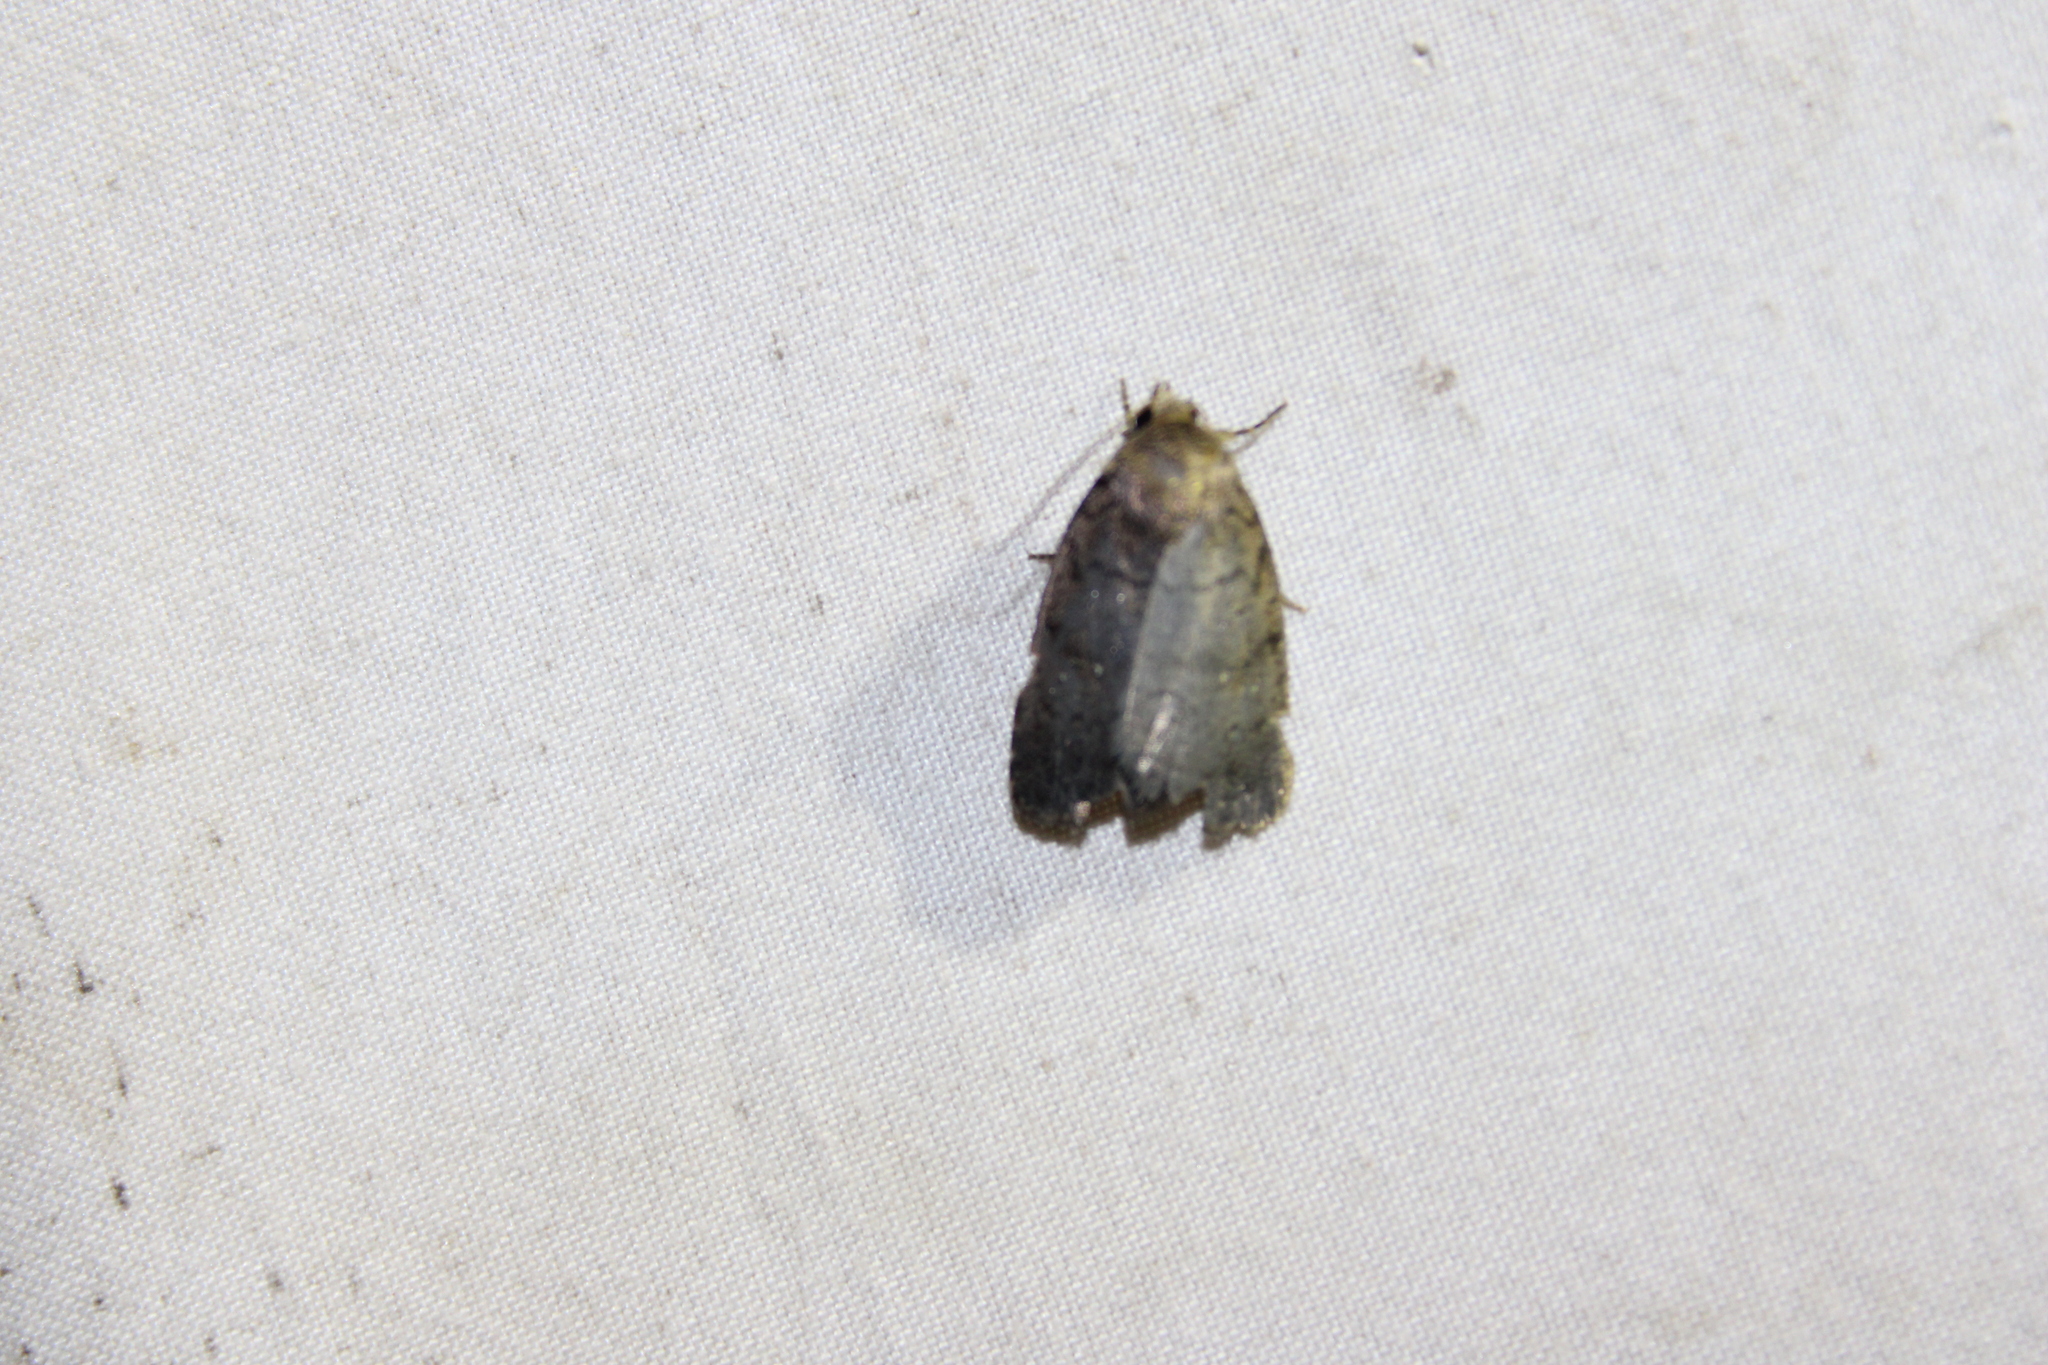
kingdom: Animalia
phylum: Arthropoda
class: Insecta
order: Lepidoptera
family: Noctuidae
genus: Athetis
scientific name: Athetis tarda
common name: Slowpoke moth
